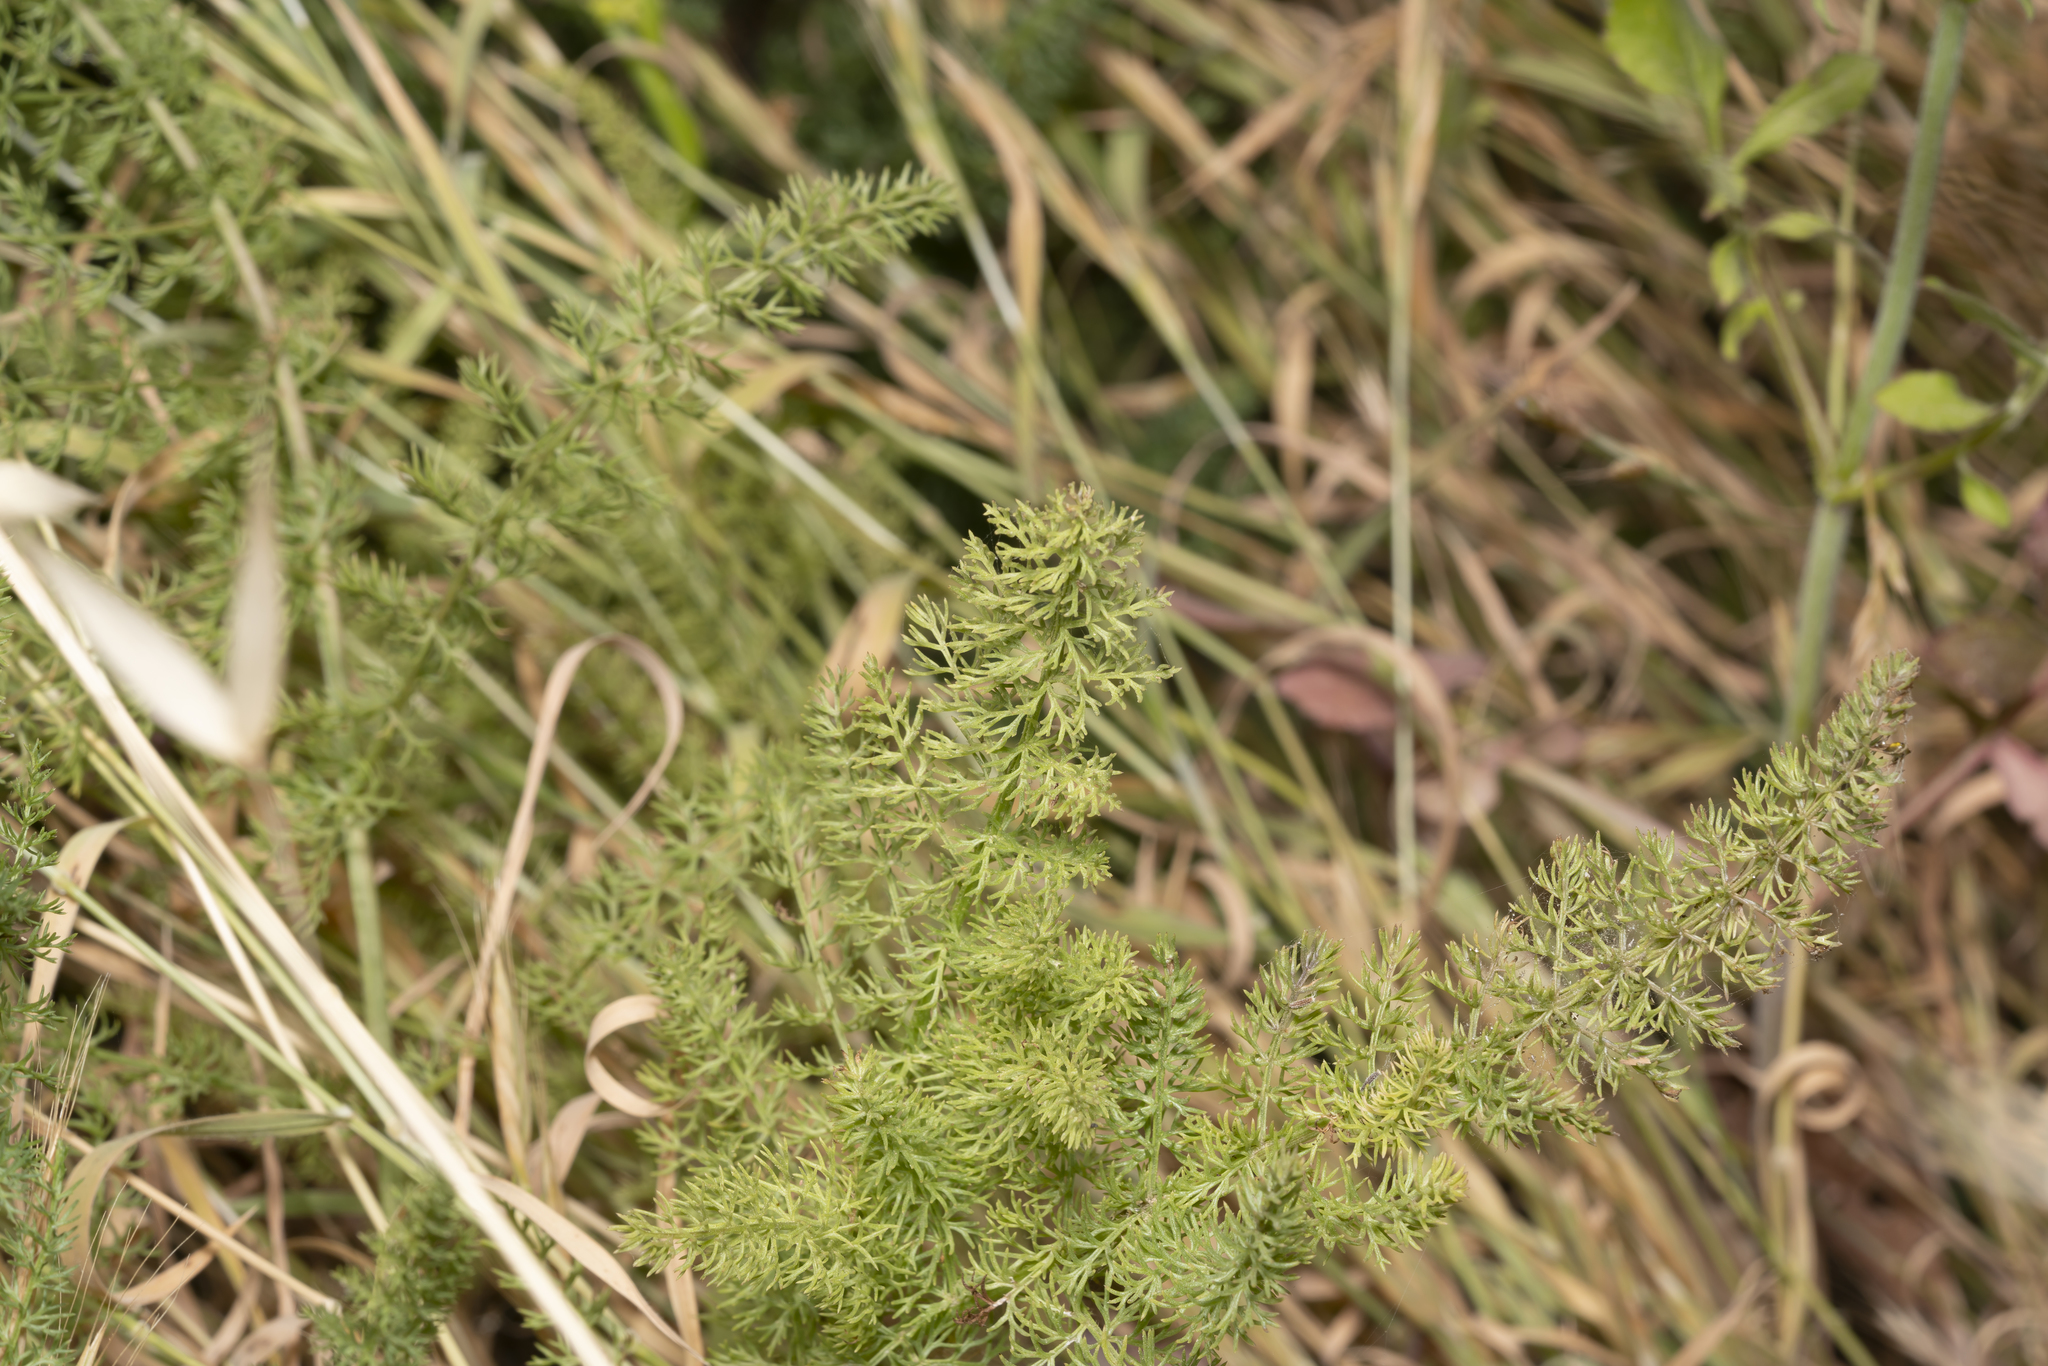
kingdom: Plantae
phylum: Tracheophyta
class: Magnoliopsida
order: Apiales
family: Apiaceae
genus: Thapsia
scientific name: Thapsia asclepium
